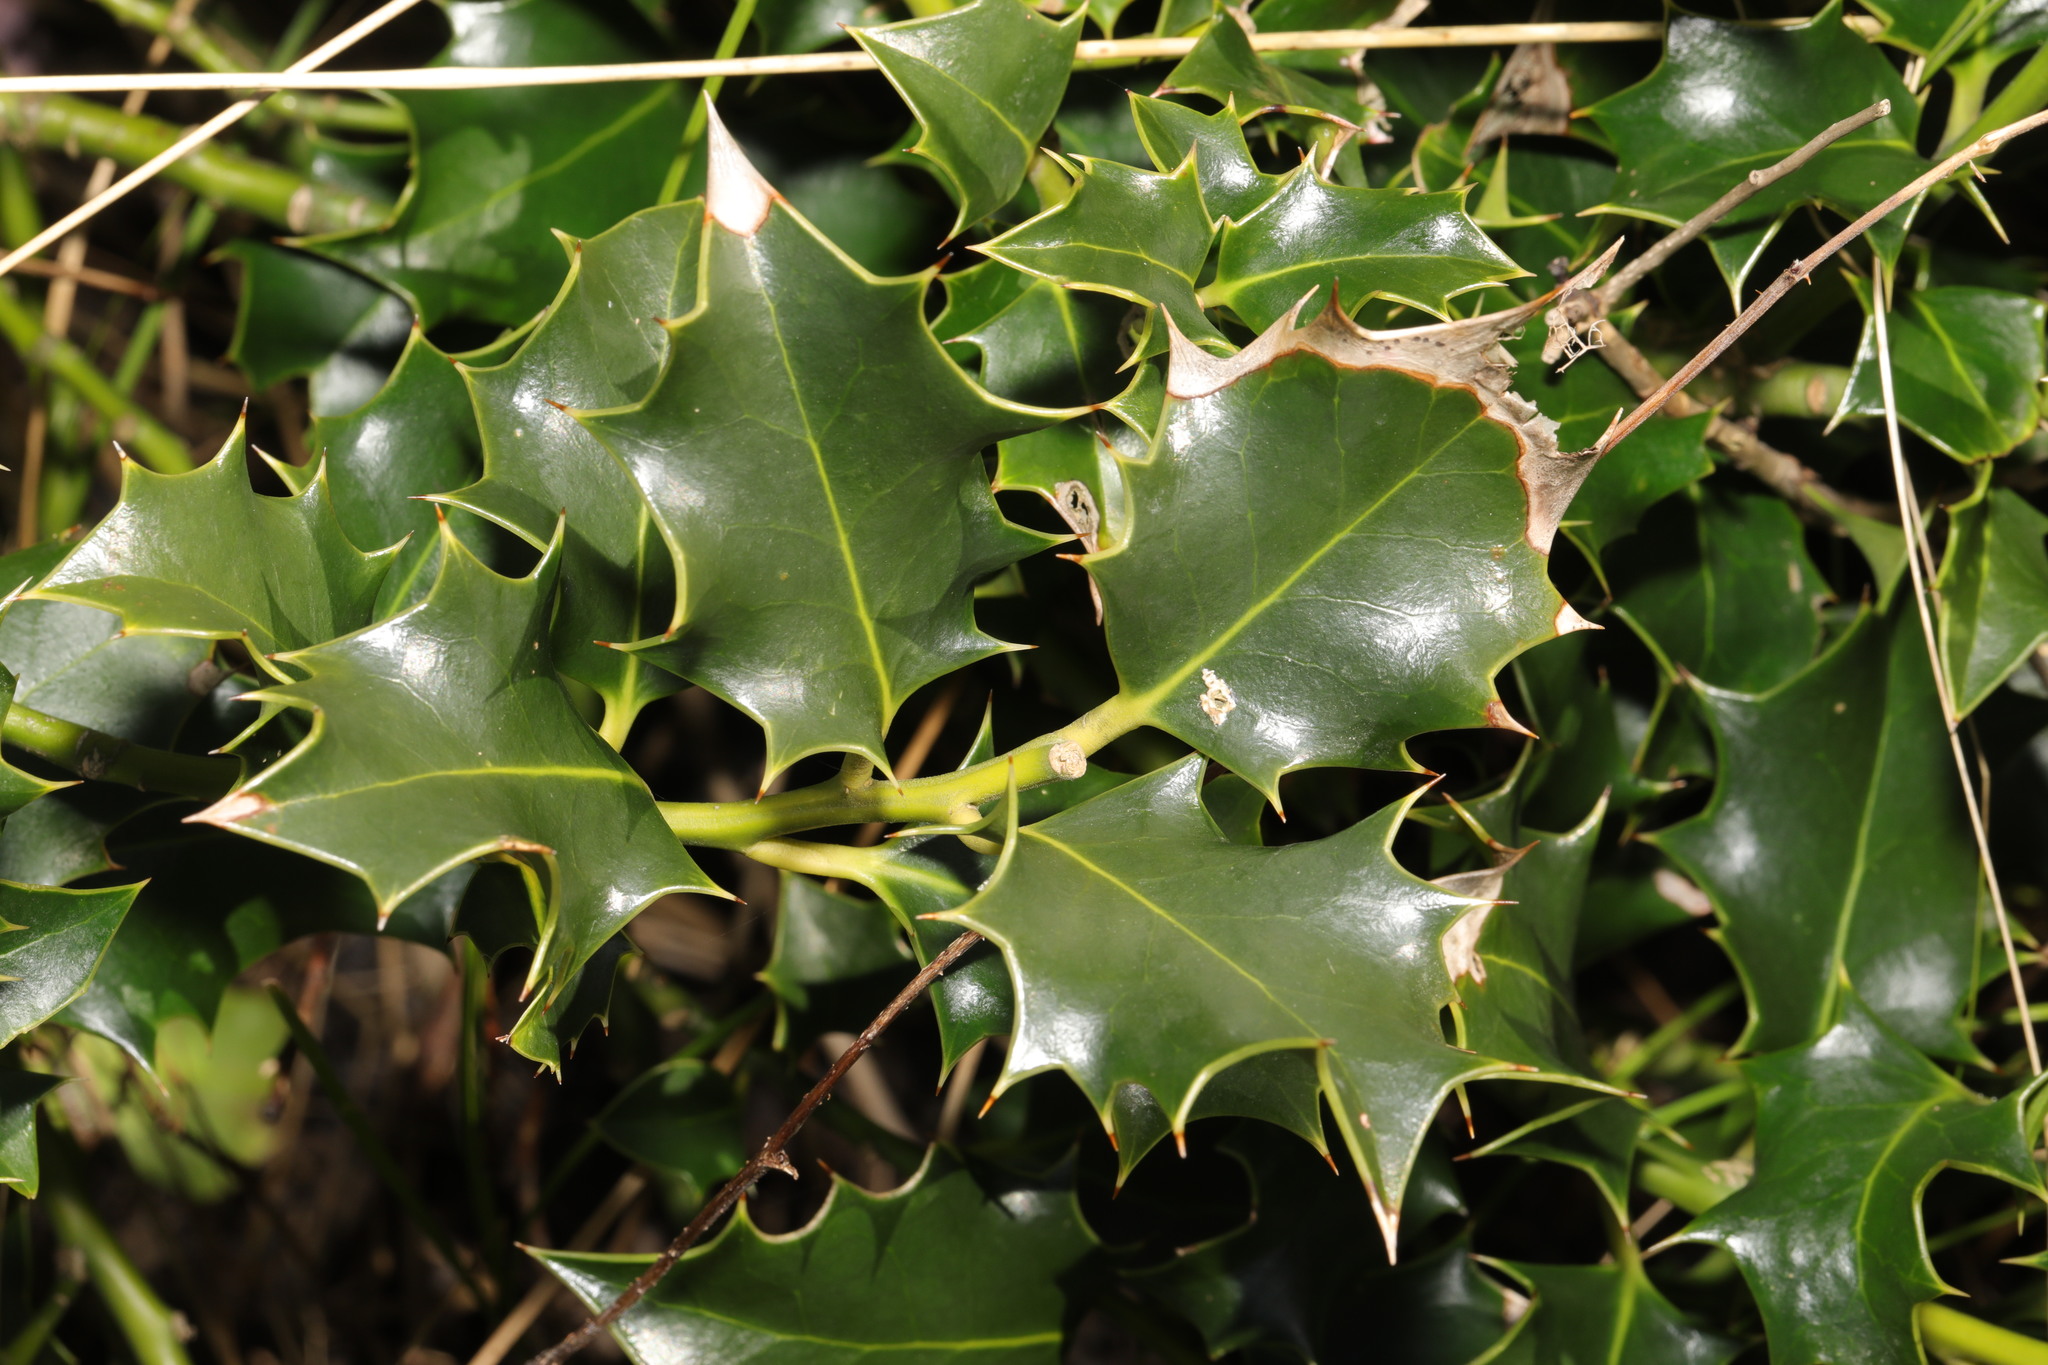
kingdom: Plantae
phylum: Tracheophyta
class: Magnoliopsida
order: Aquifoliales
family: Aquifoliaceae
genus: Ilex
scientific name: Ilex aquifolium
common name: English holly
